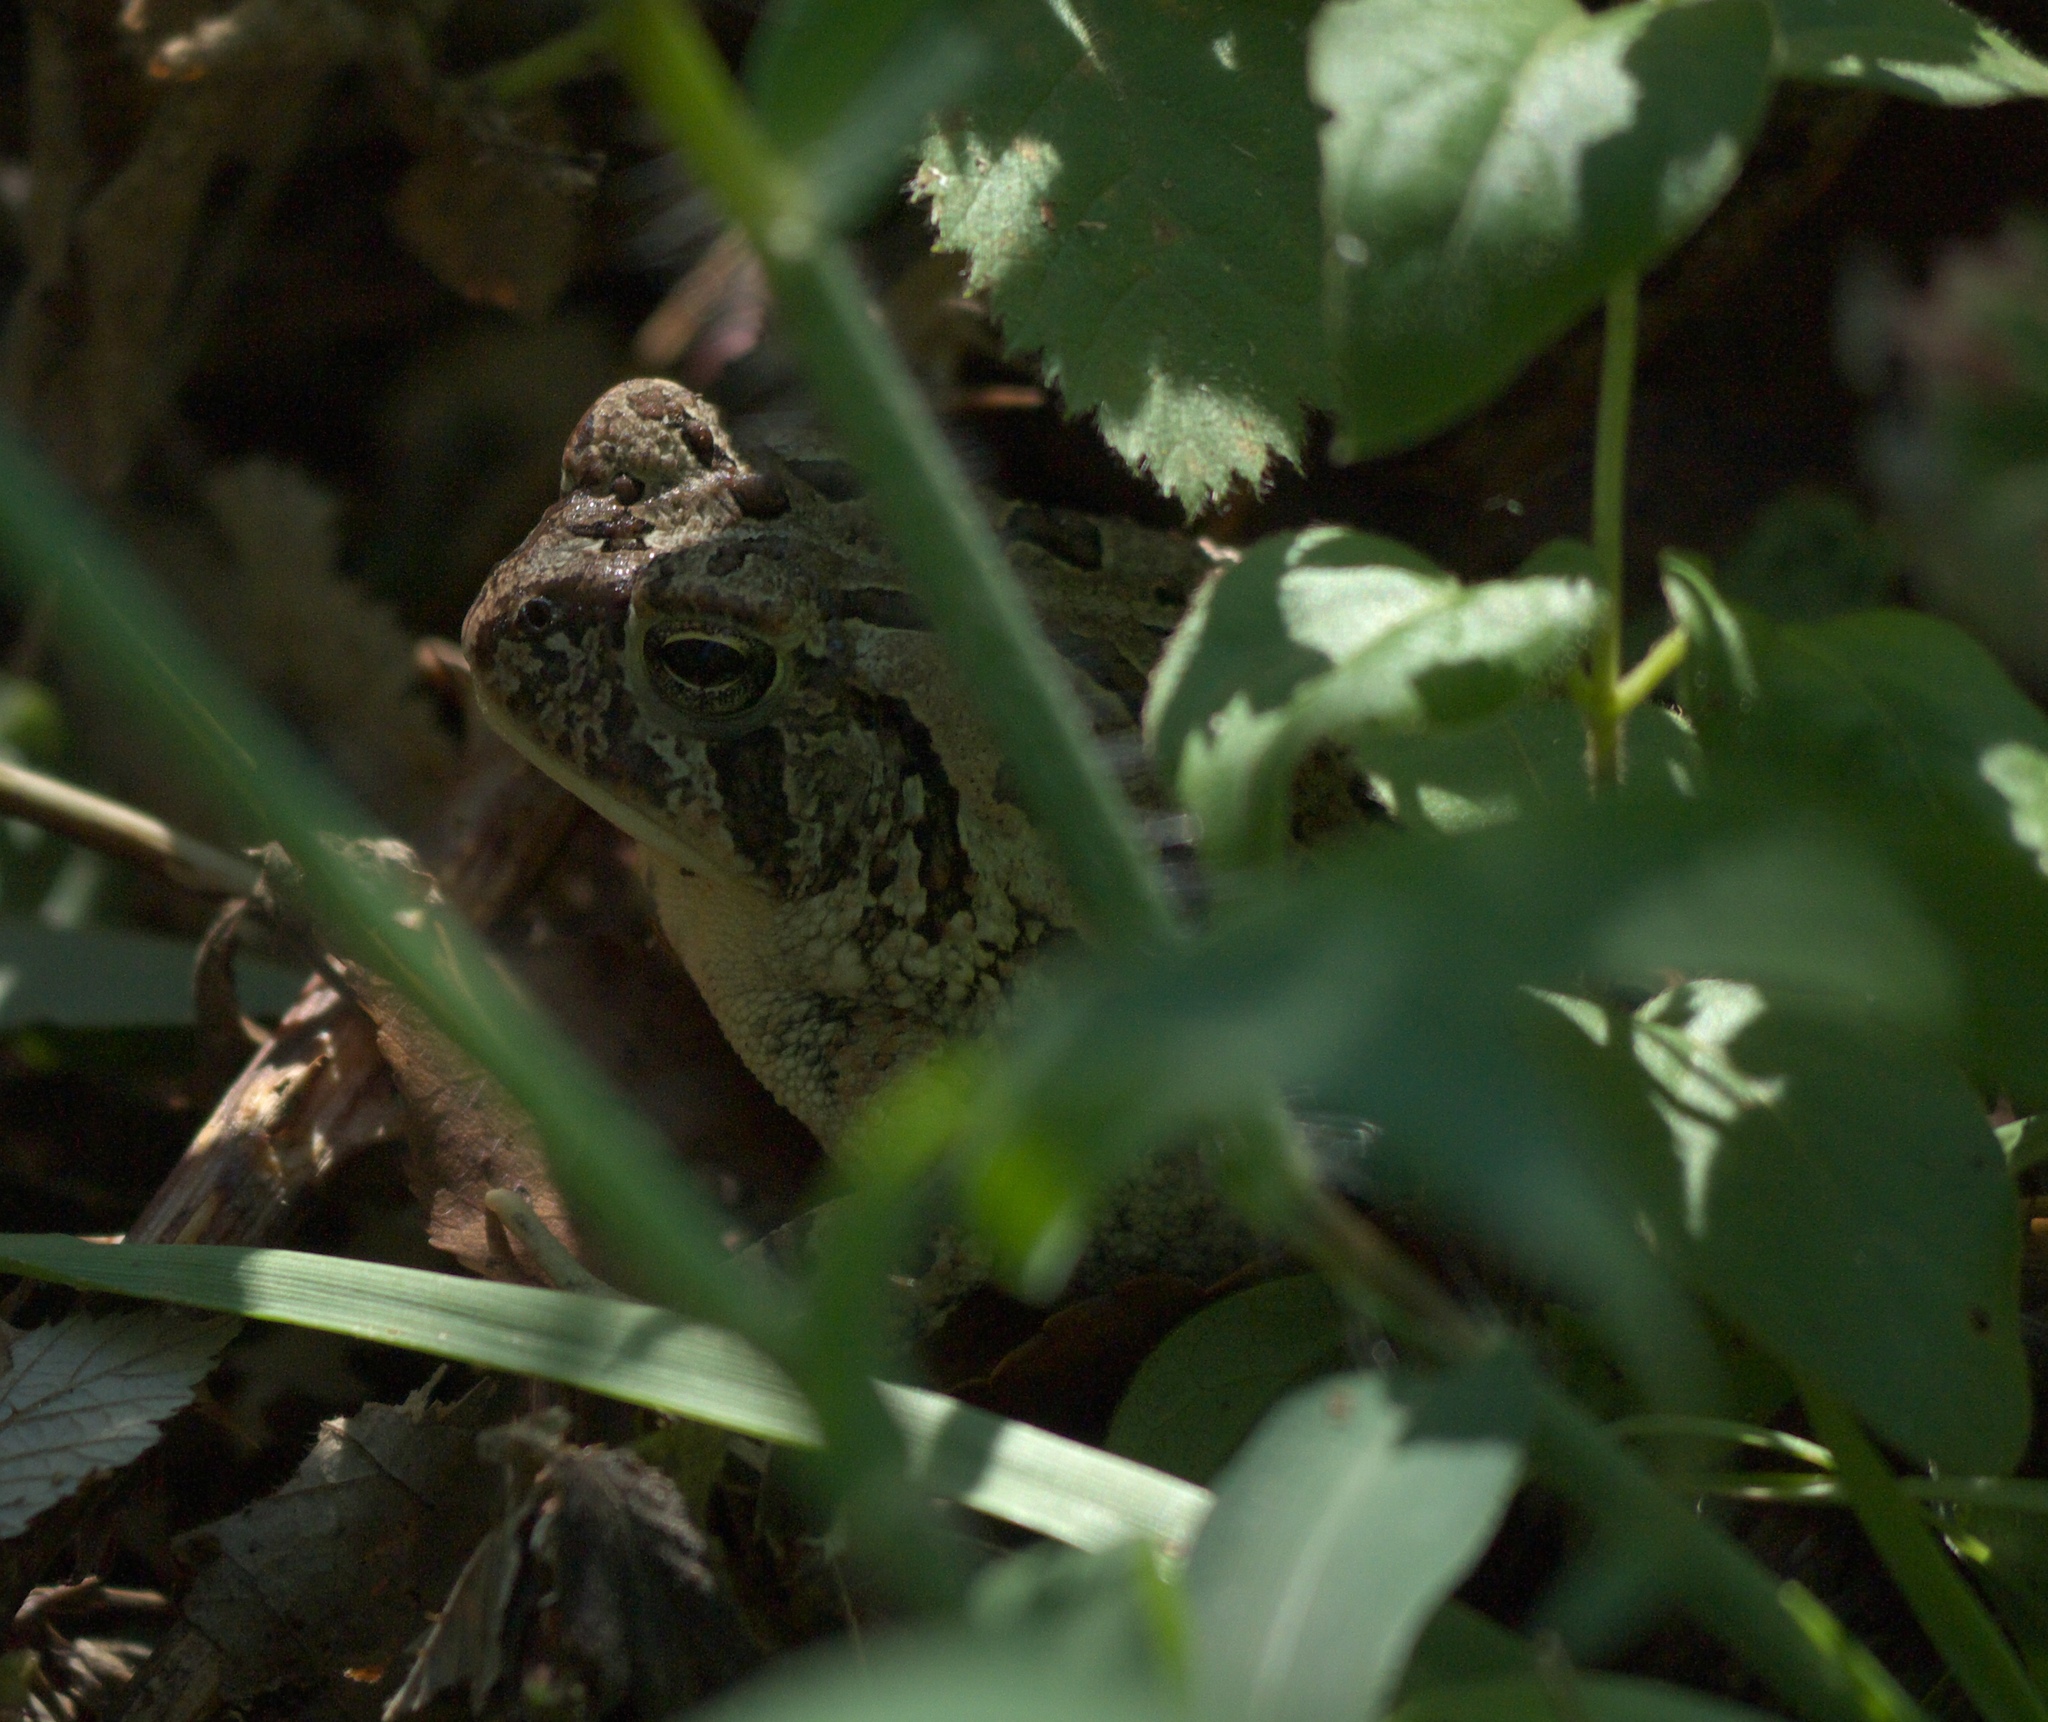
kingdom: Animalia
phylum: Chordata
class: Amphibia
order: Anura
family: Bufonidae
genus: Anaxyrus
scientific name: Anaxyrus fowleri
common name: Fowler's toad
